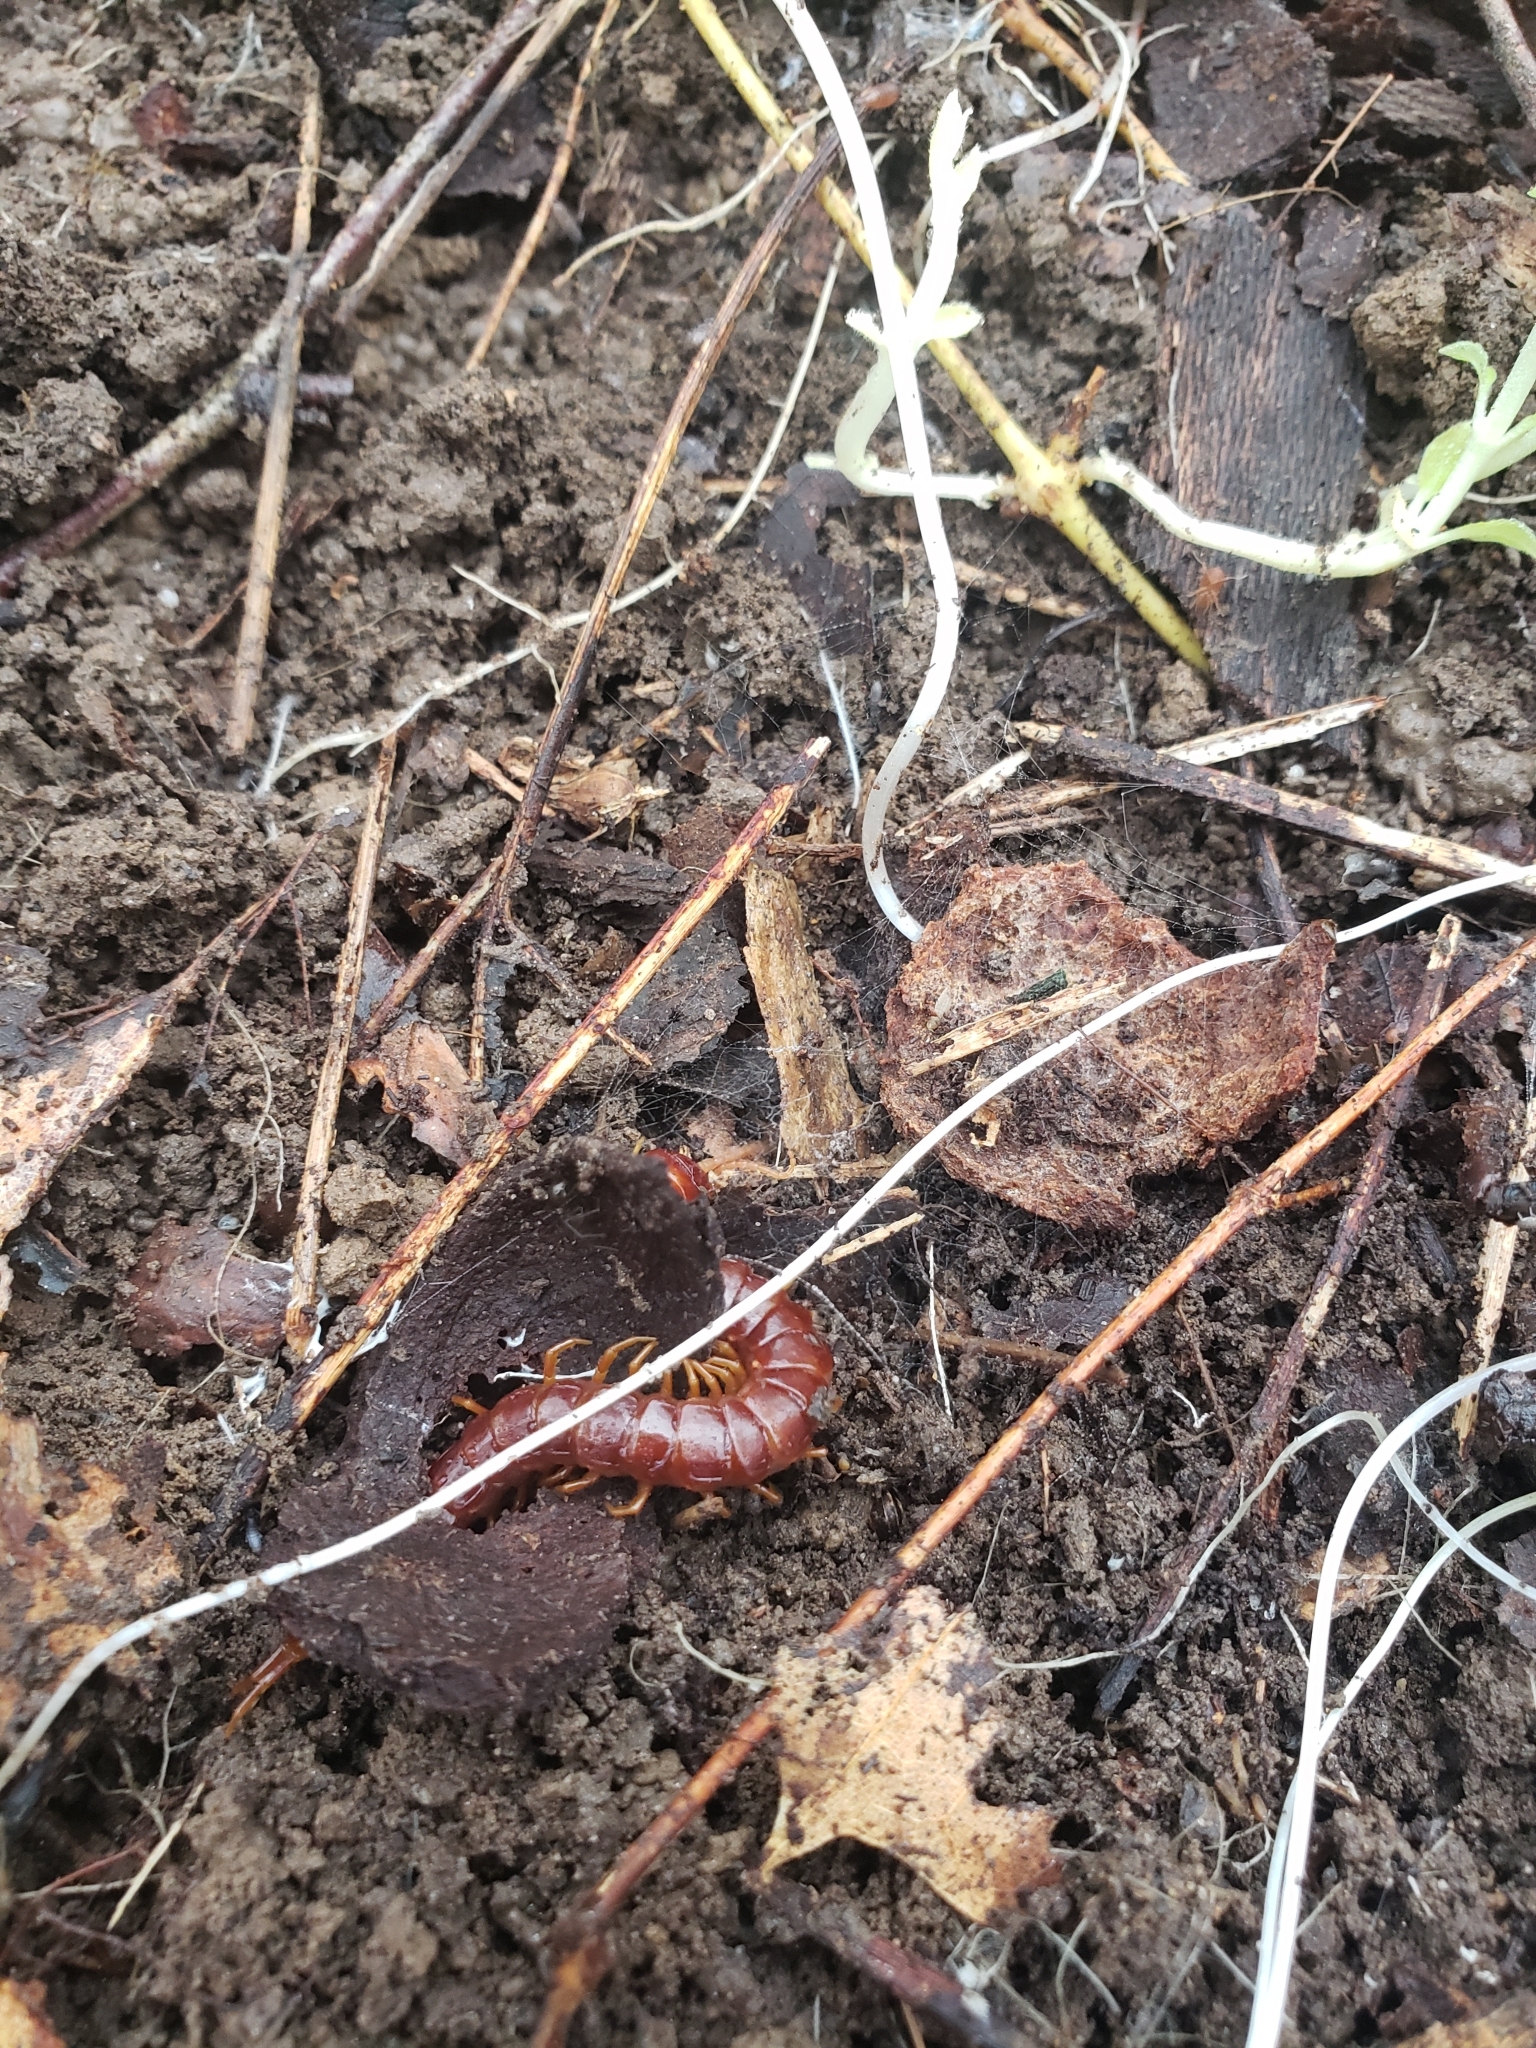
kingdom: Animalia
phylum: Arthropoda
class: Chilopoda
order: Scolopendromorpha
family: Scolopocryptopidae
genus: Scolopocryptops
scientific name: Scolopocryptops sexspinosus
